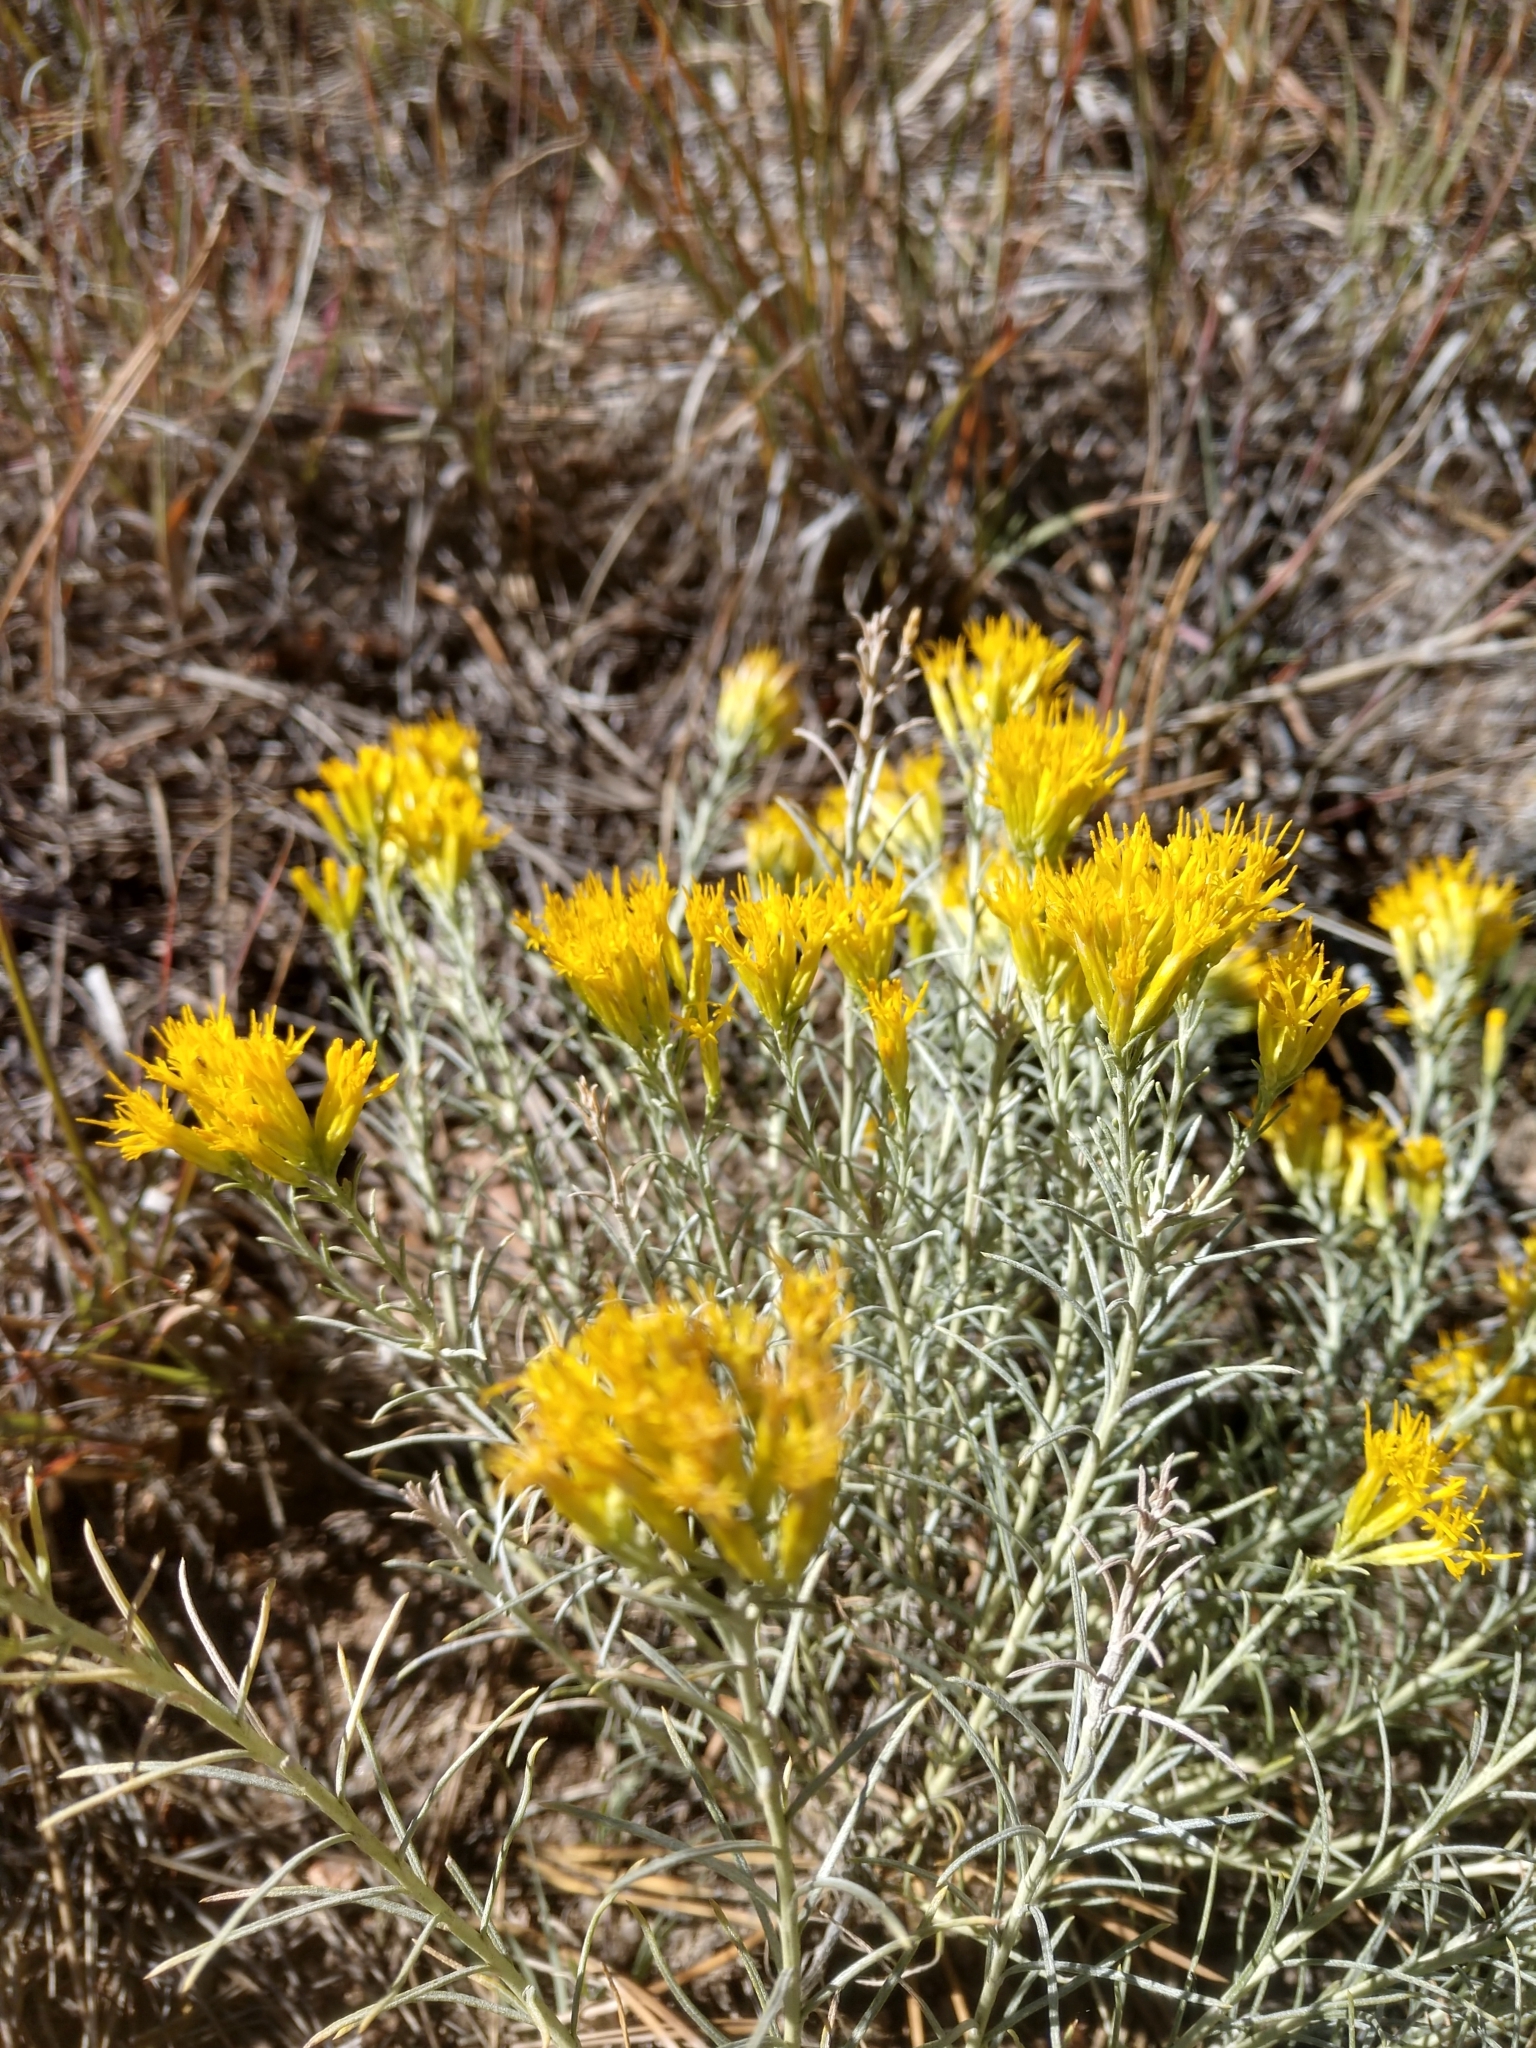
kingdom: Plantae
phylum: Tracheophyta
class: Magnoliopsida
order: Asterales
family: Asteraceae
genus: Ericameria
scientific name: Ericameria nauseosa
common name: Rubber rabbitbrush
